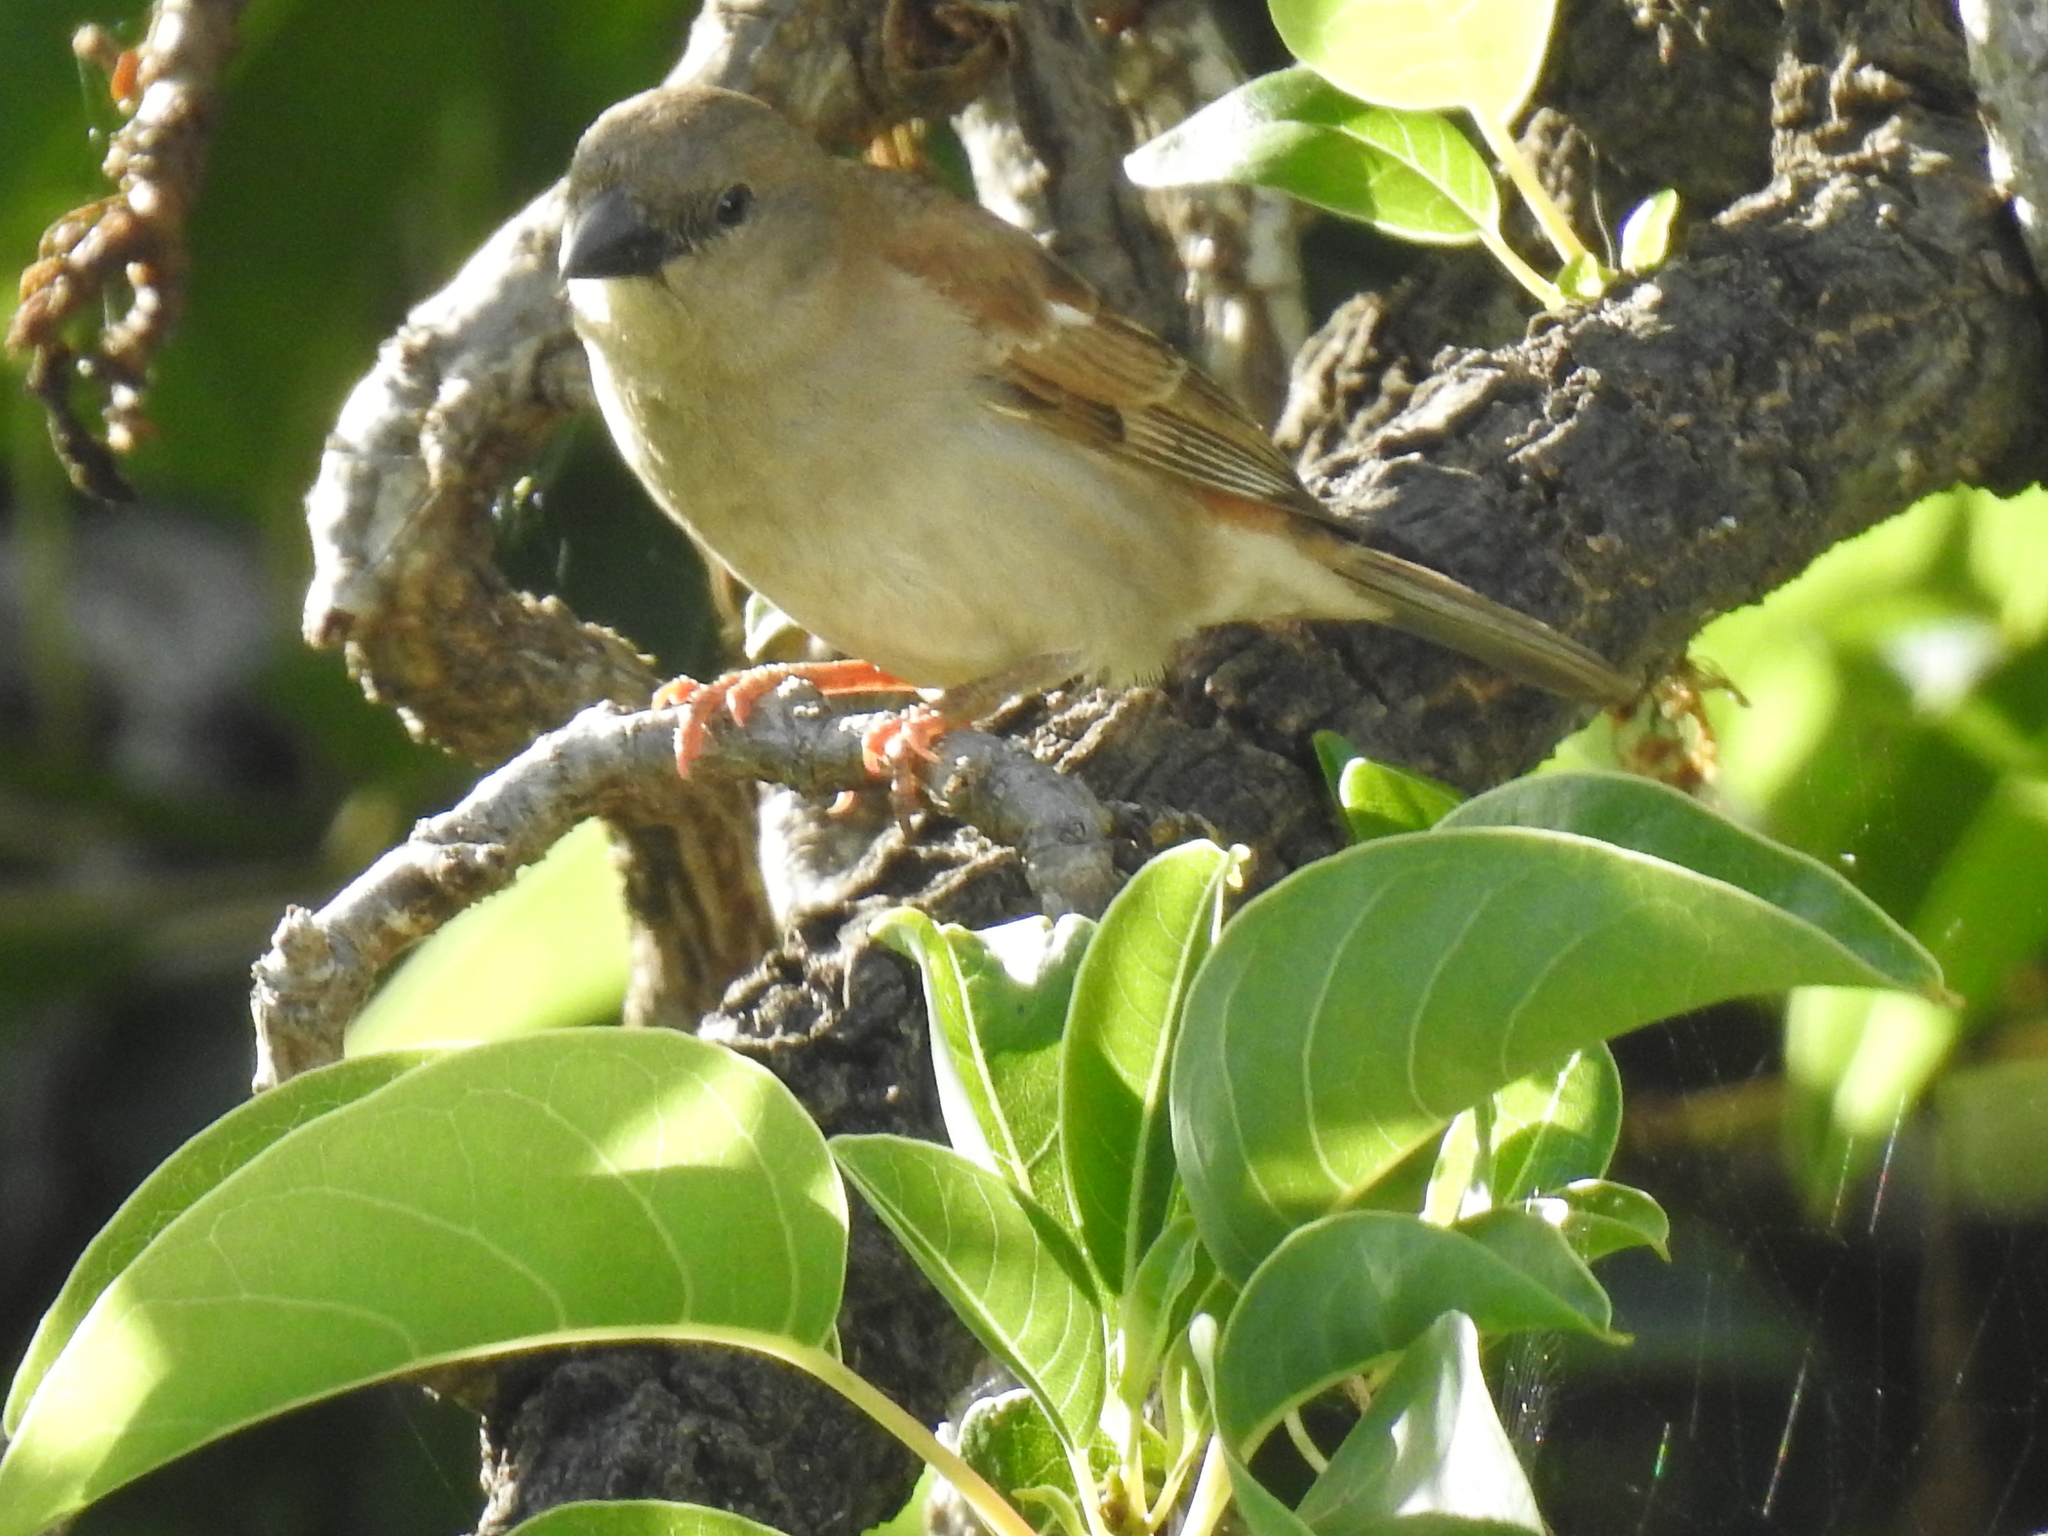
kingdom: Animalia
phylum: Chordata
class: Aves
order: Passeriformes
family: Passeridae
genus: Passer
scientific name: Passer diffusus
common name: Southern grey-headed sparrow
